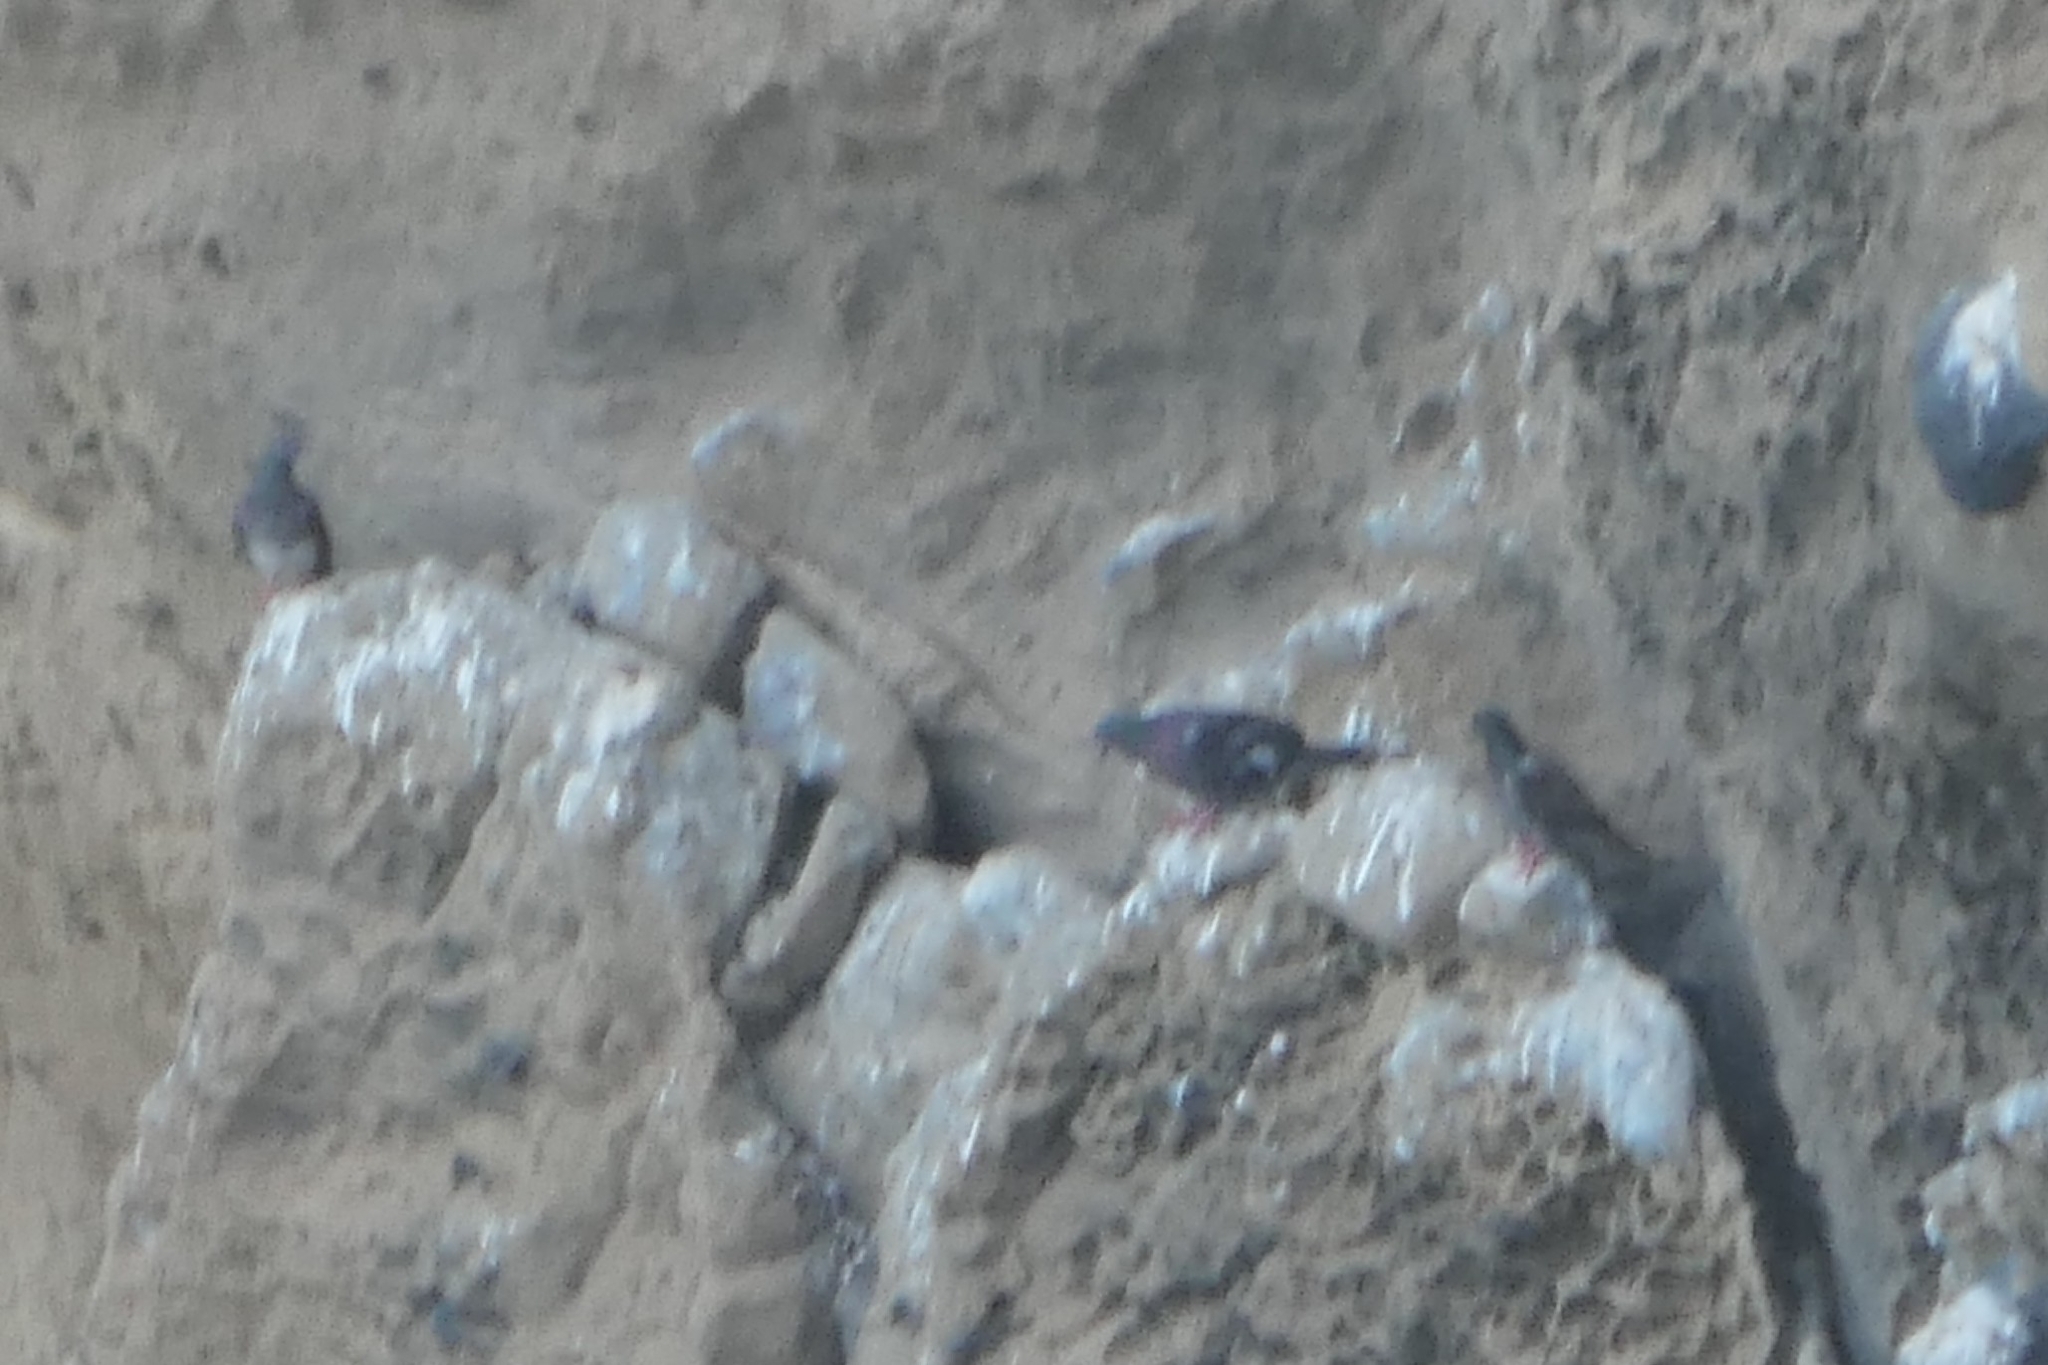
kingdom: Animalia
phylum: Chordata
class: Aves
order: Columbiformes
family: Columbidae
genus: Columba
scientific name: Columba livia
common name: Rock pigeon
